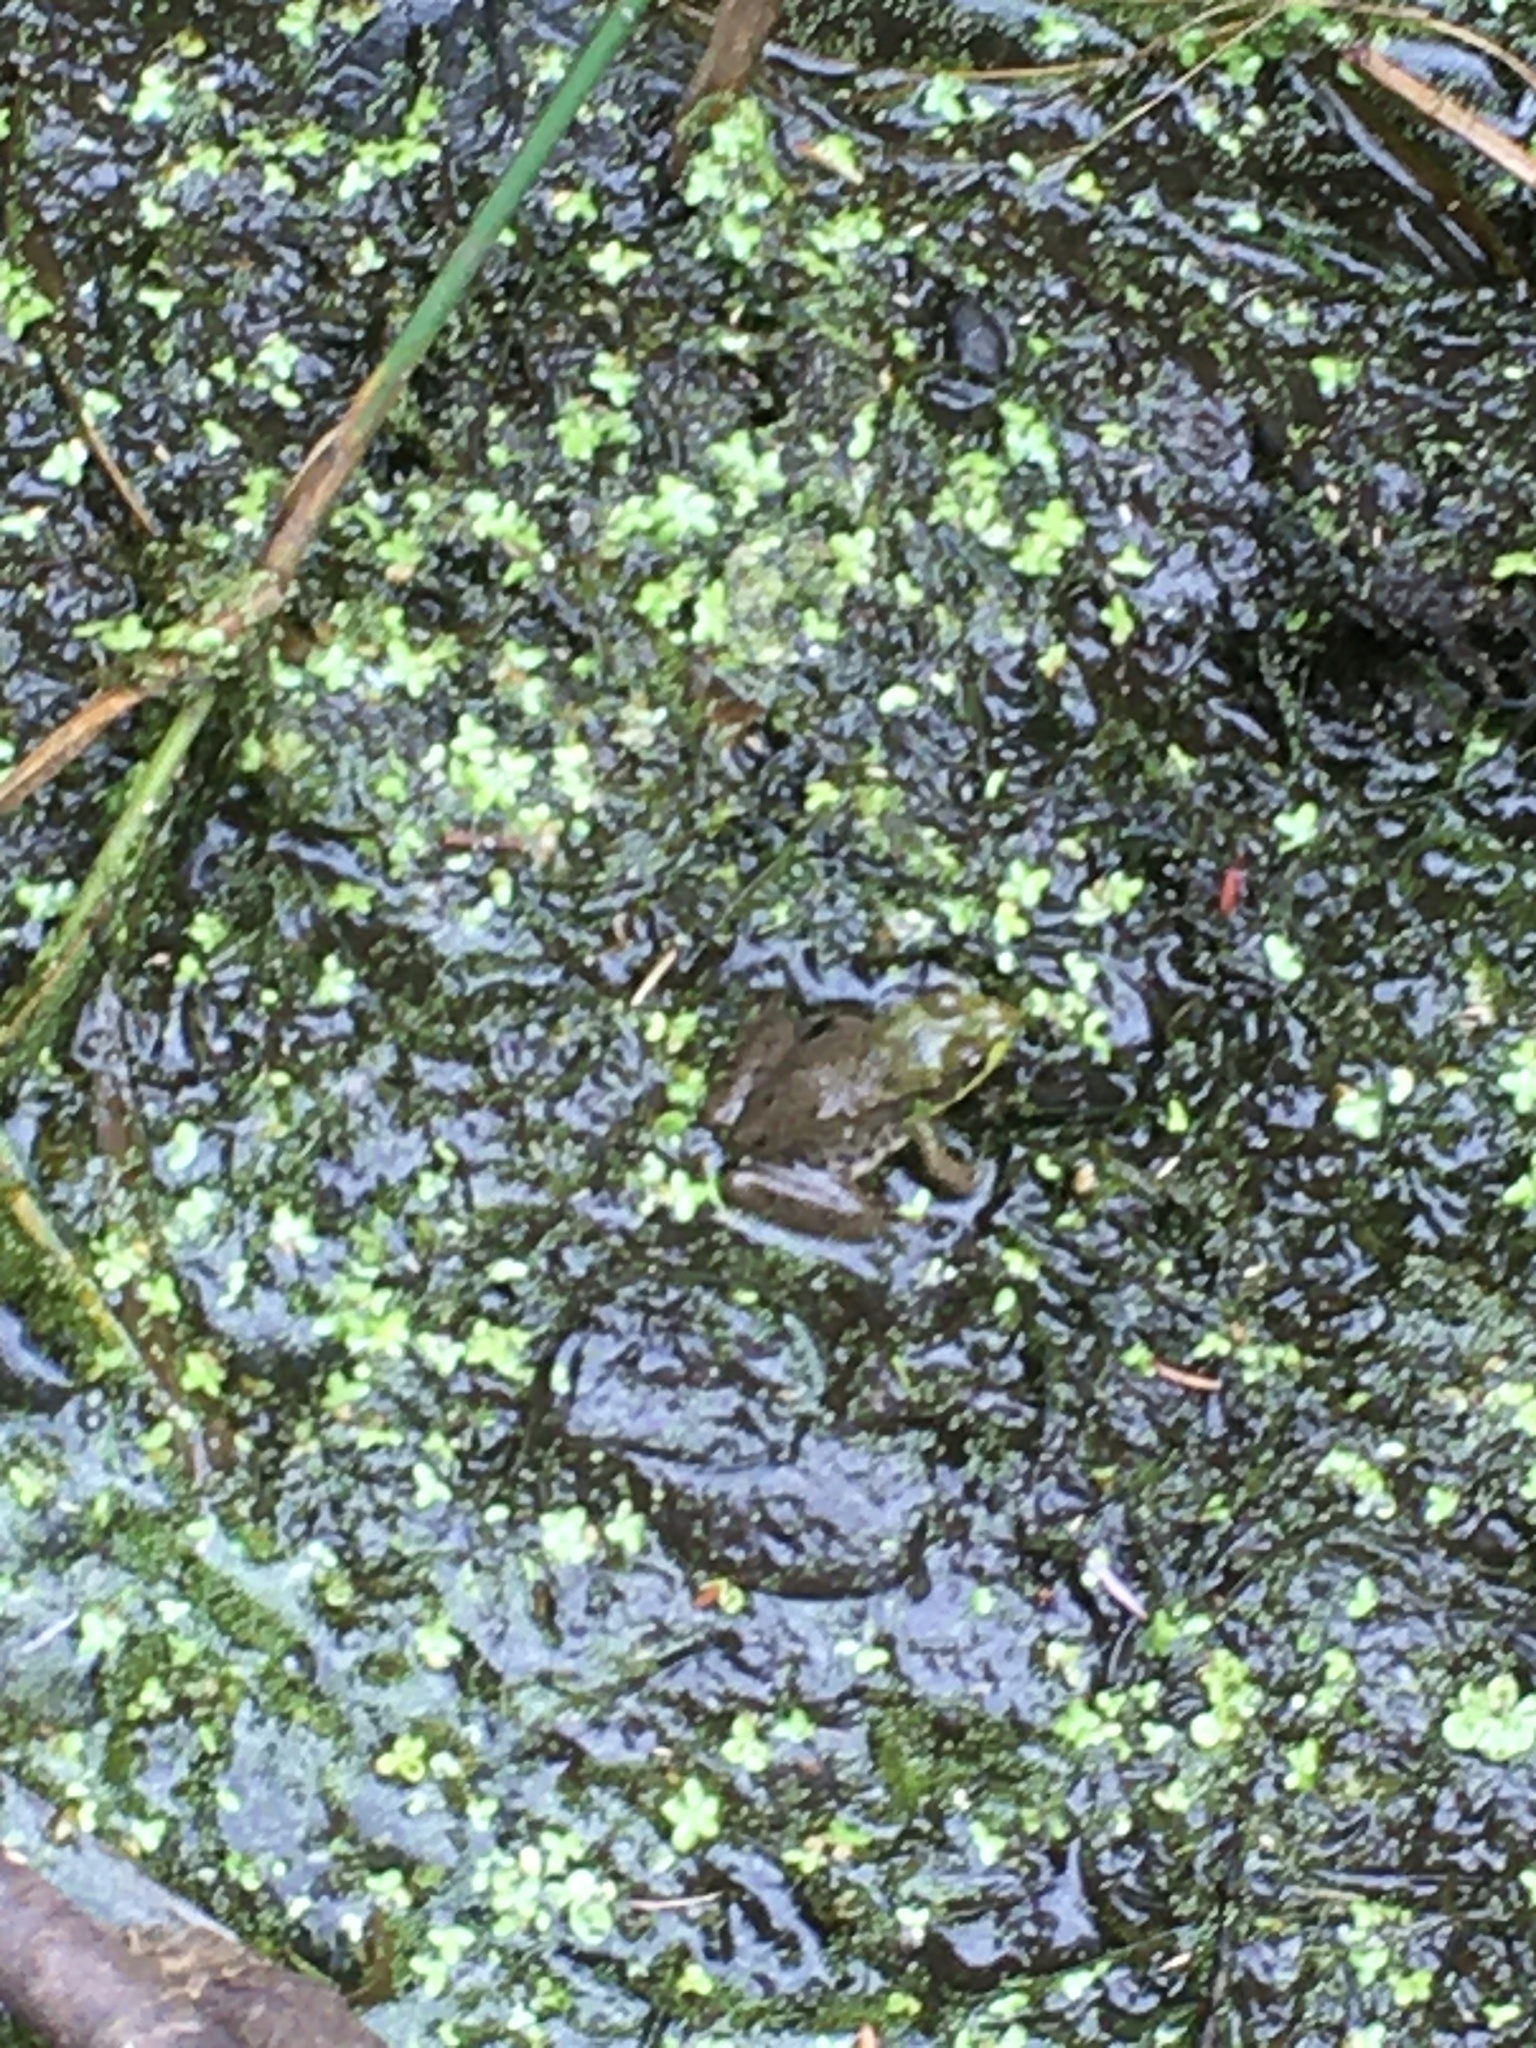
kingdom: Animalia
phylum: Chordata
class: Amphibia
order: Anura
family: Ranidae
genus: Lithobates
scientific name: Lithobates clamitans
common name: Green frog
